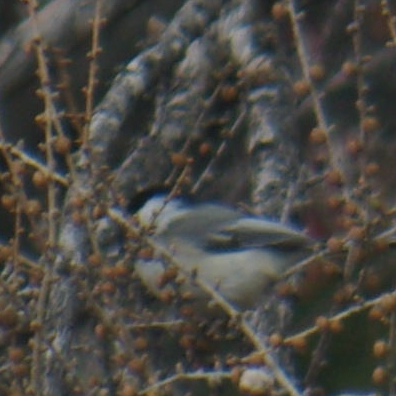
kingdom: Animalia
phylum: Chordata
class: Aves
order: Passeriformes
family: Paridae
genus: Poecile
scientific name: Poecile atricapillus
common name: Black-capped chickadee
